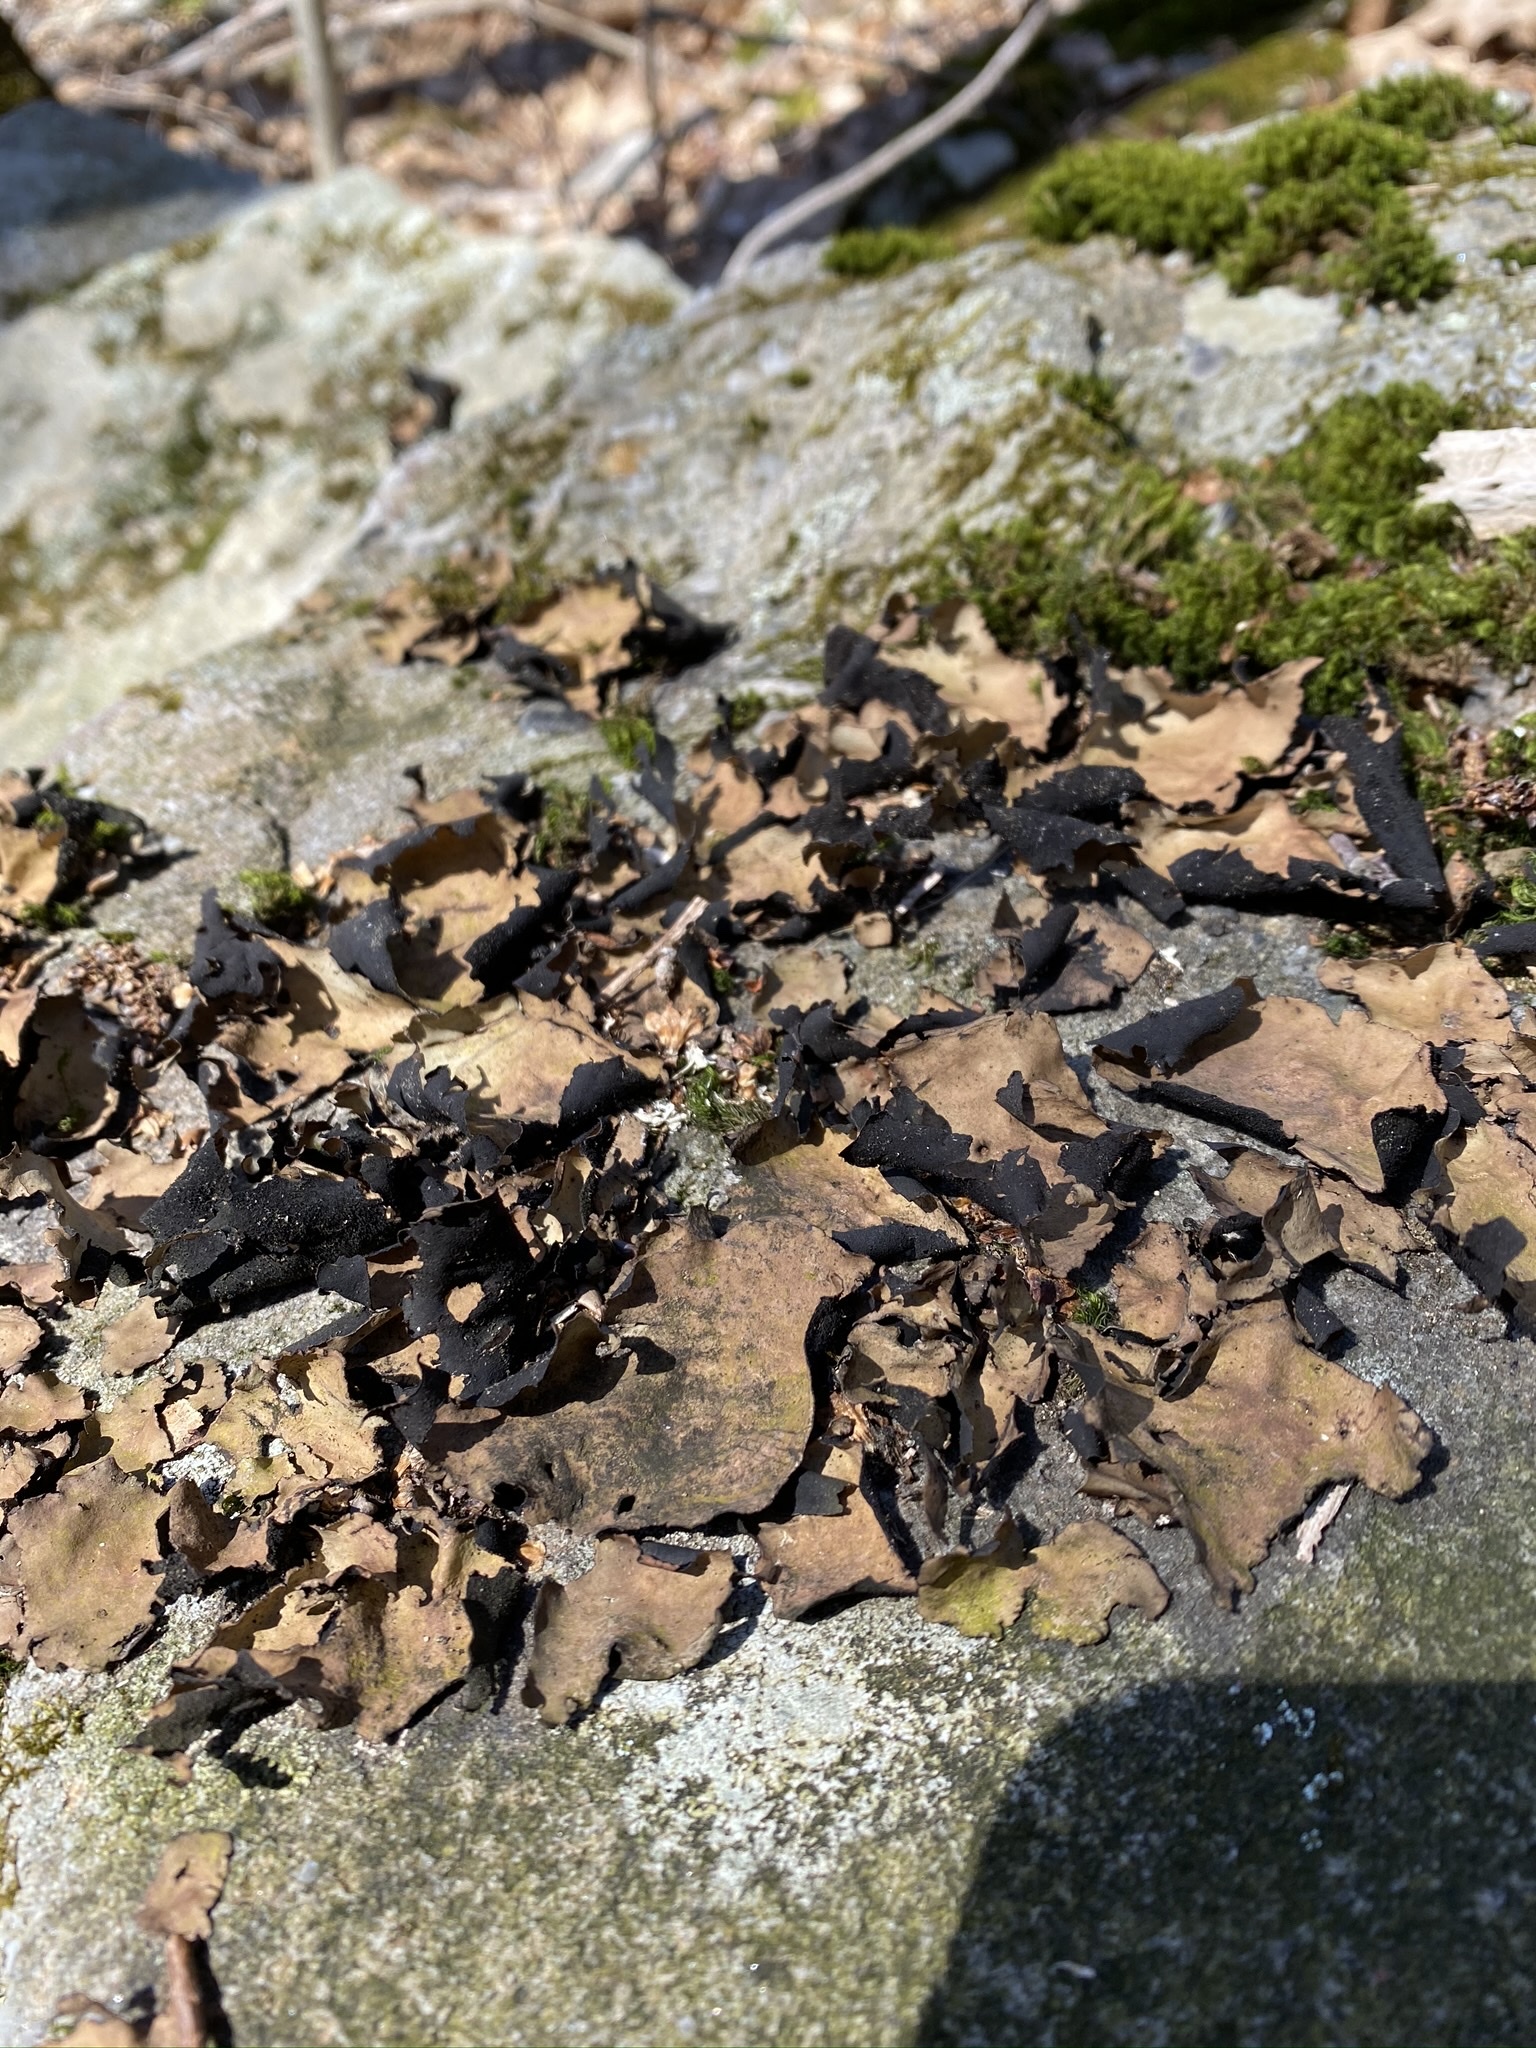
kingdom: Fungi
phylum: Ascomycota
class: Lecanoromycetes
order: Umbilicariales
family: Umbilicariaceae
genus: Umbilicaria
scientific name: Umbilicaria mammulata
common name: Smooth rock tripe
